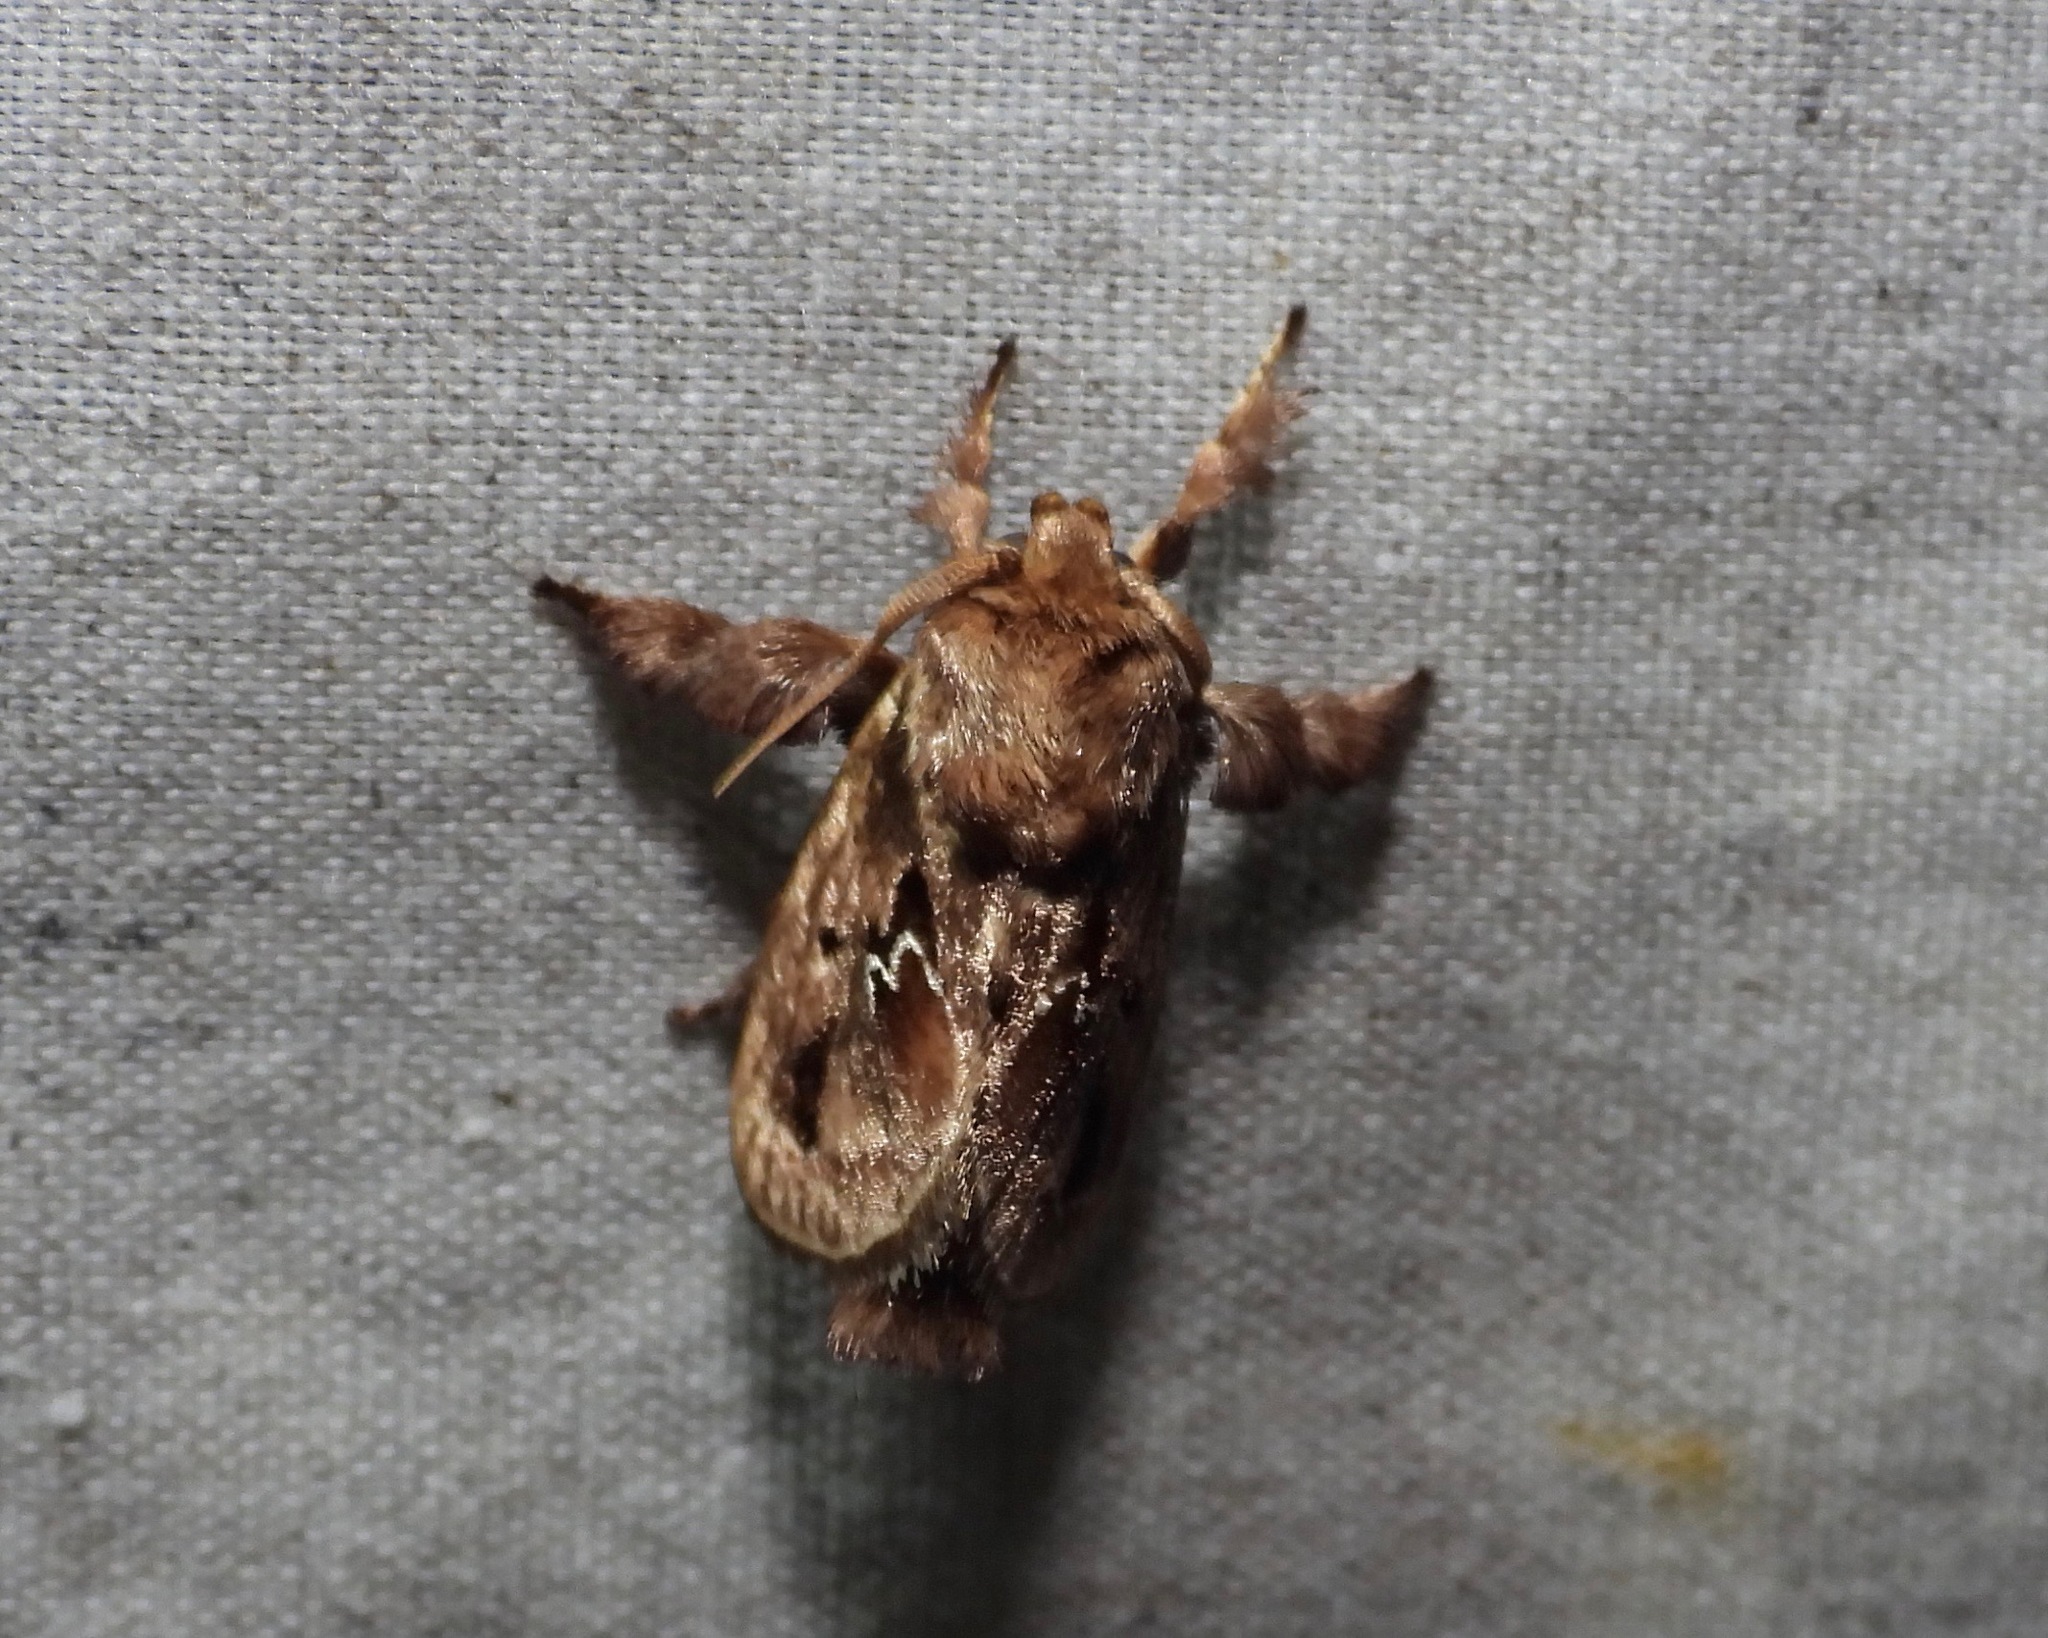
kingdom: Animalia
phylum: Arthropoda
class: Insecta
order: Lepidoptera
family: Limacodidae
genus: Euclea
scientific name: Euclea diversa
